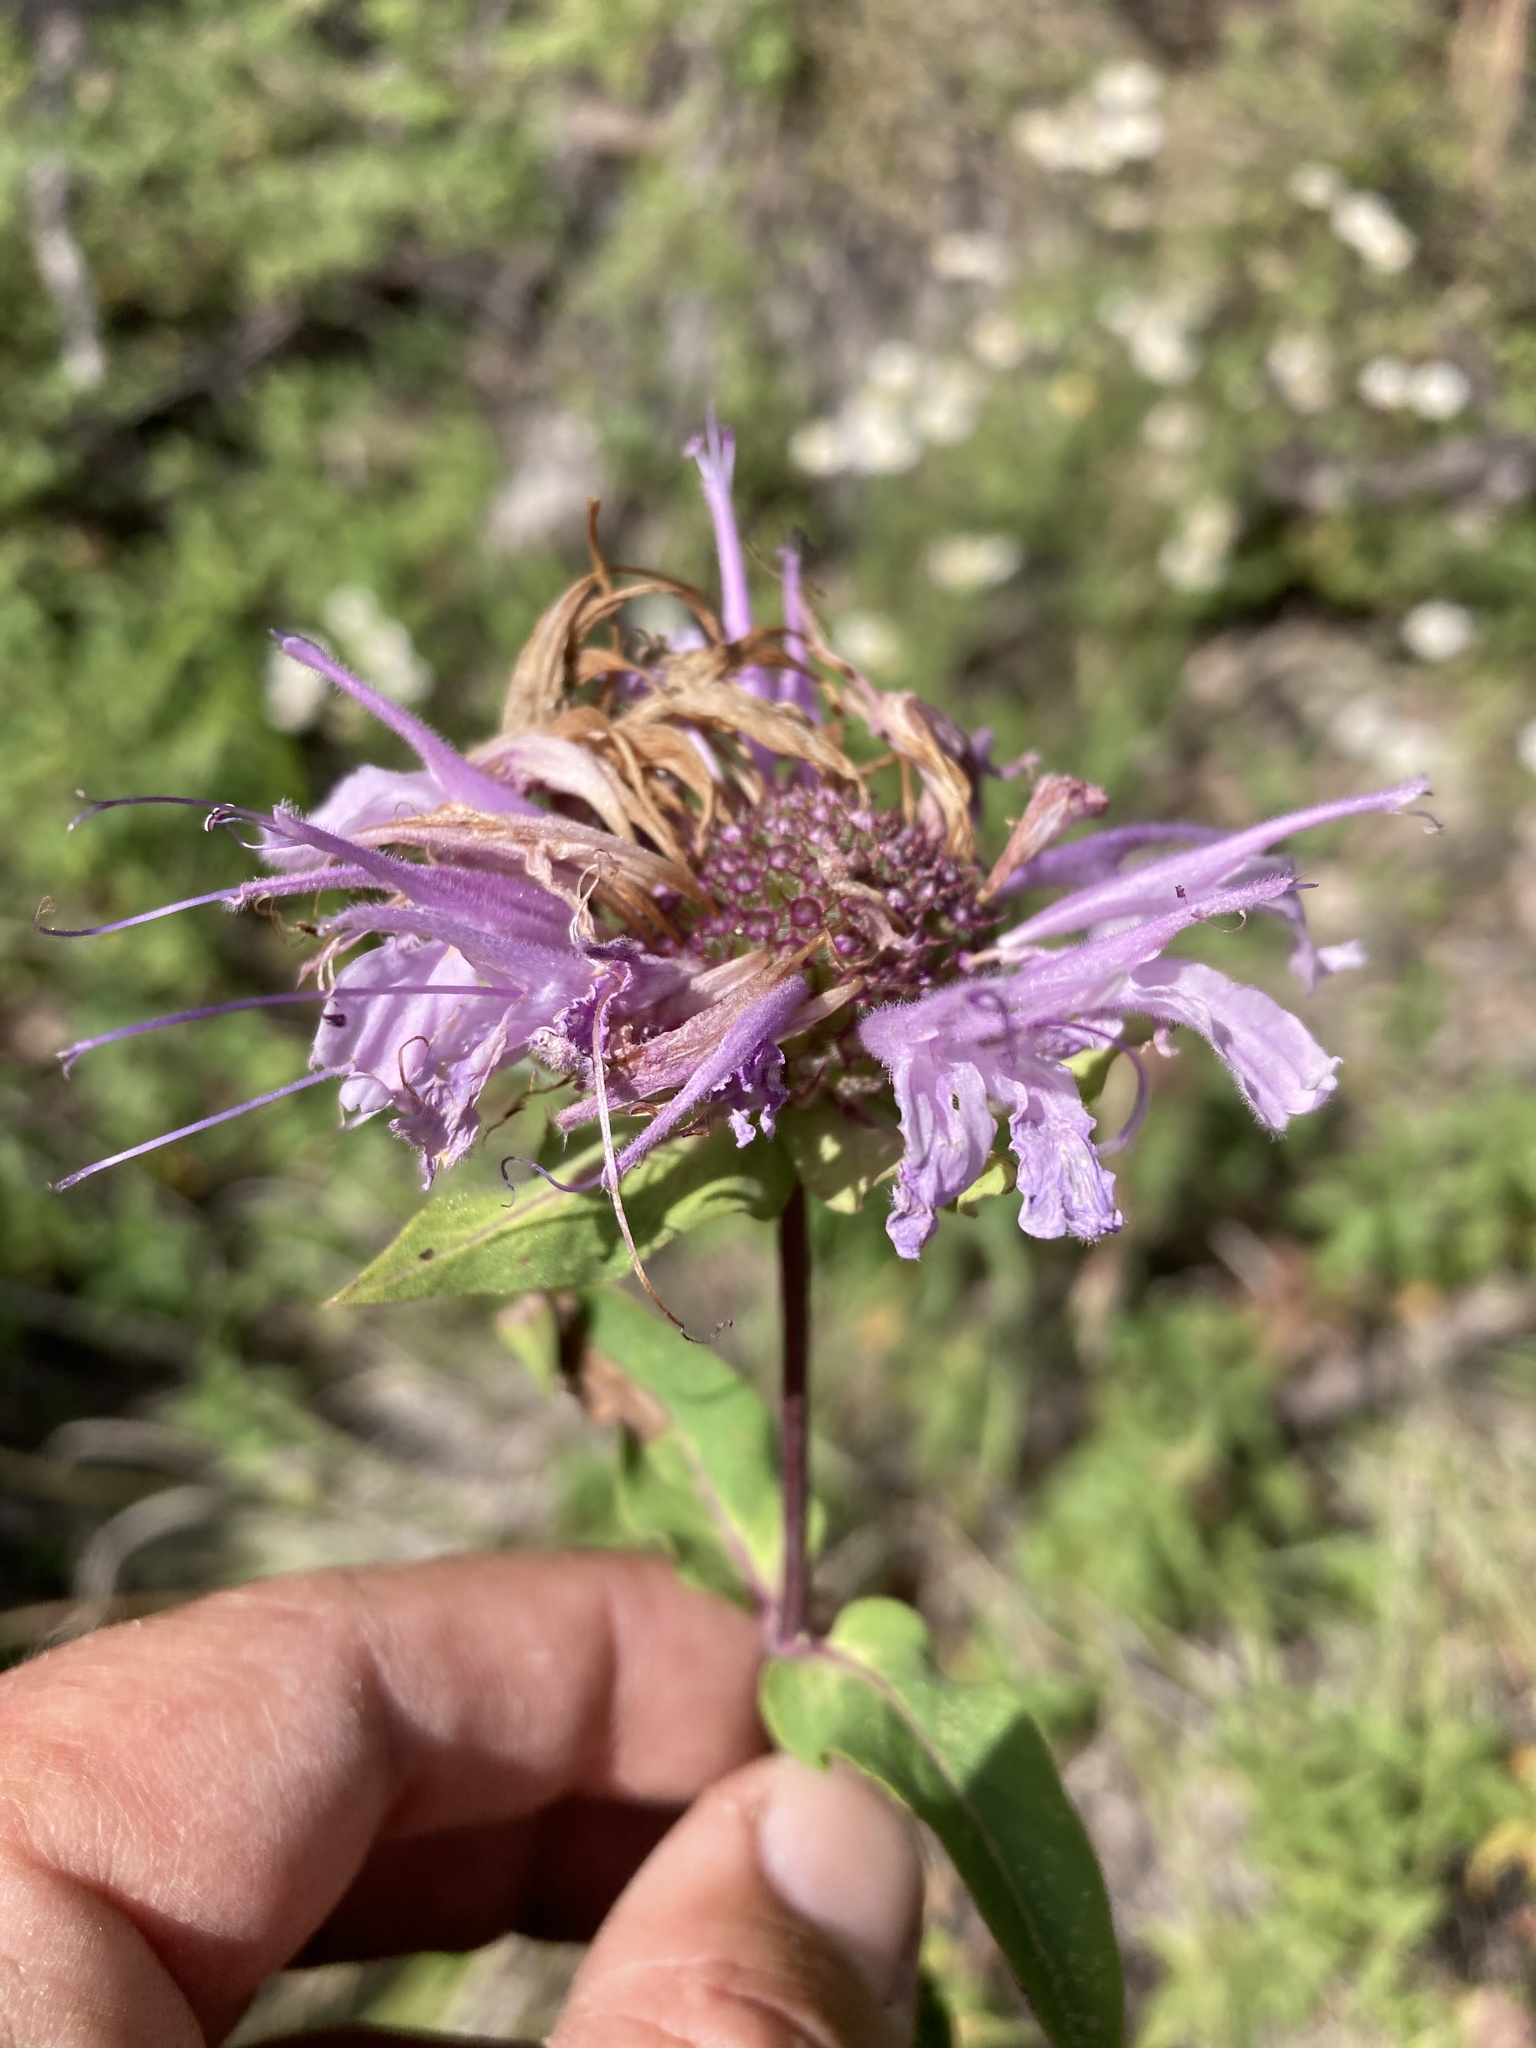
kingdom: Plantae
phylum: Tracheophyta
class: Magnoliopsida
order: Lamiales
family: Lamiaceae
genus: Monarda
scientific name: Monarda fistulosa
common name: Purple beebalm
